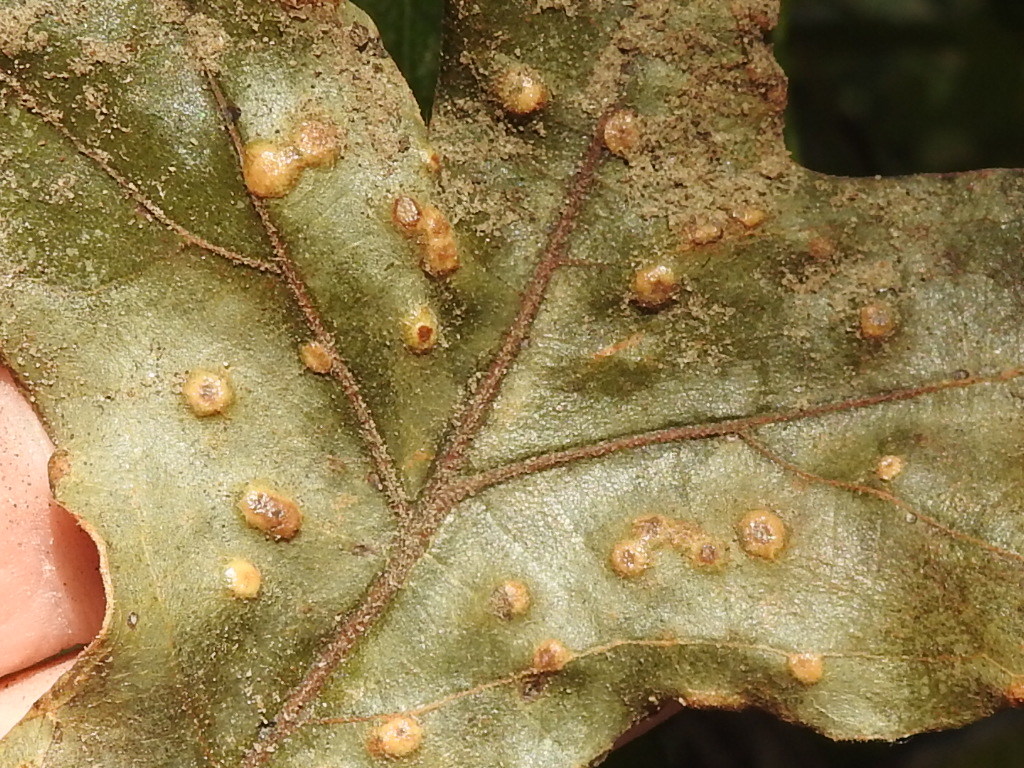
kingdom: Animalia
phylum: Arthropoda
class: Insecta
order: Hymenoptera
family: Cynipidae
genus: Neuroterus
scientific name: Neuroterus quercusverrucarum
